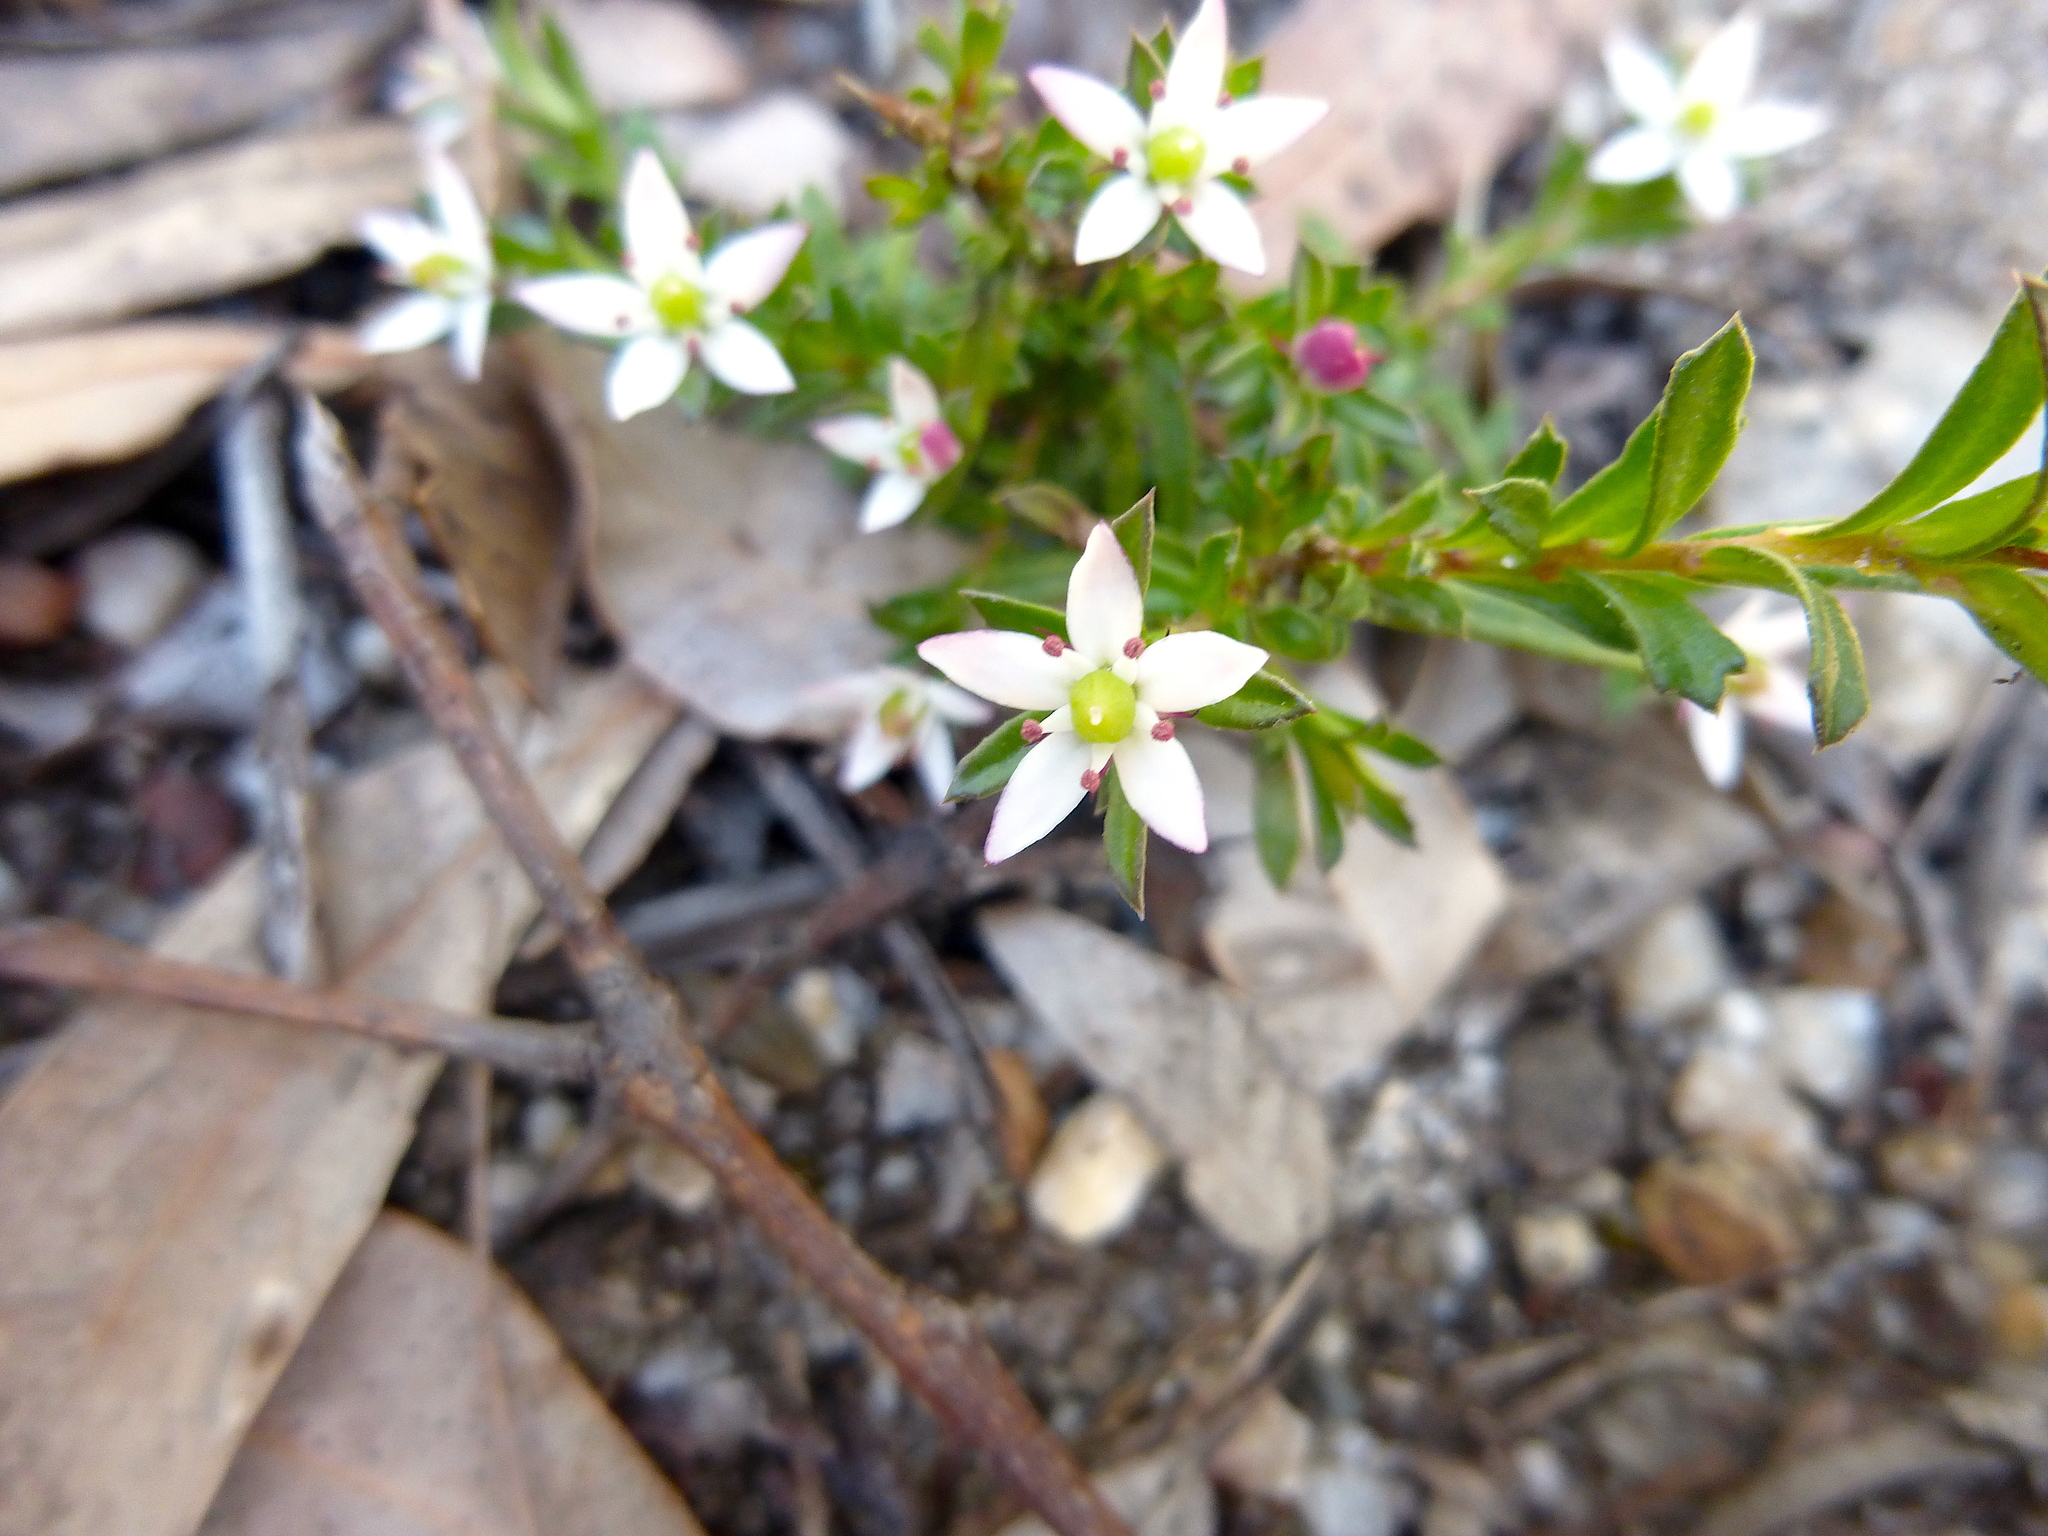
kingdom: Plantae
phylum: Tracheophyta
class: Magnoliopsida
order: Apiales
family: Pittosporaceae
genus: Rhytidosporum
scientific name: Rhytidosporum procumbens
